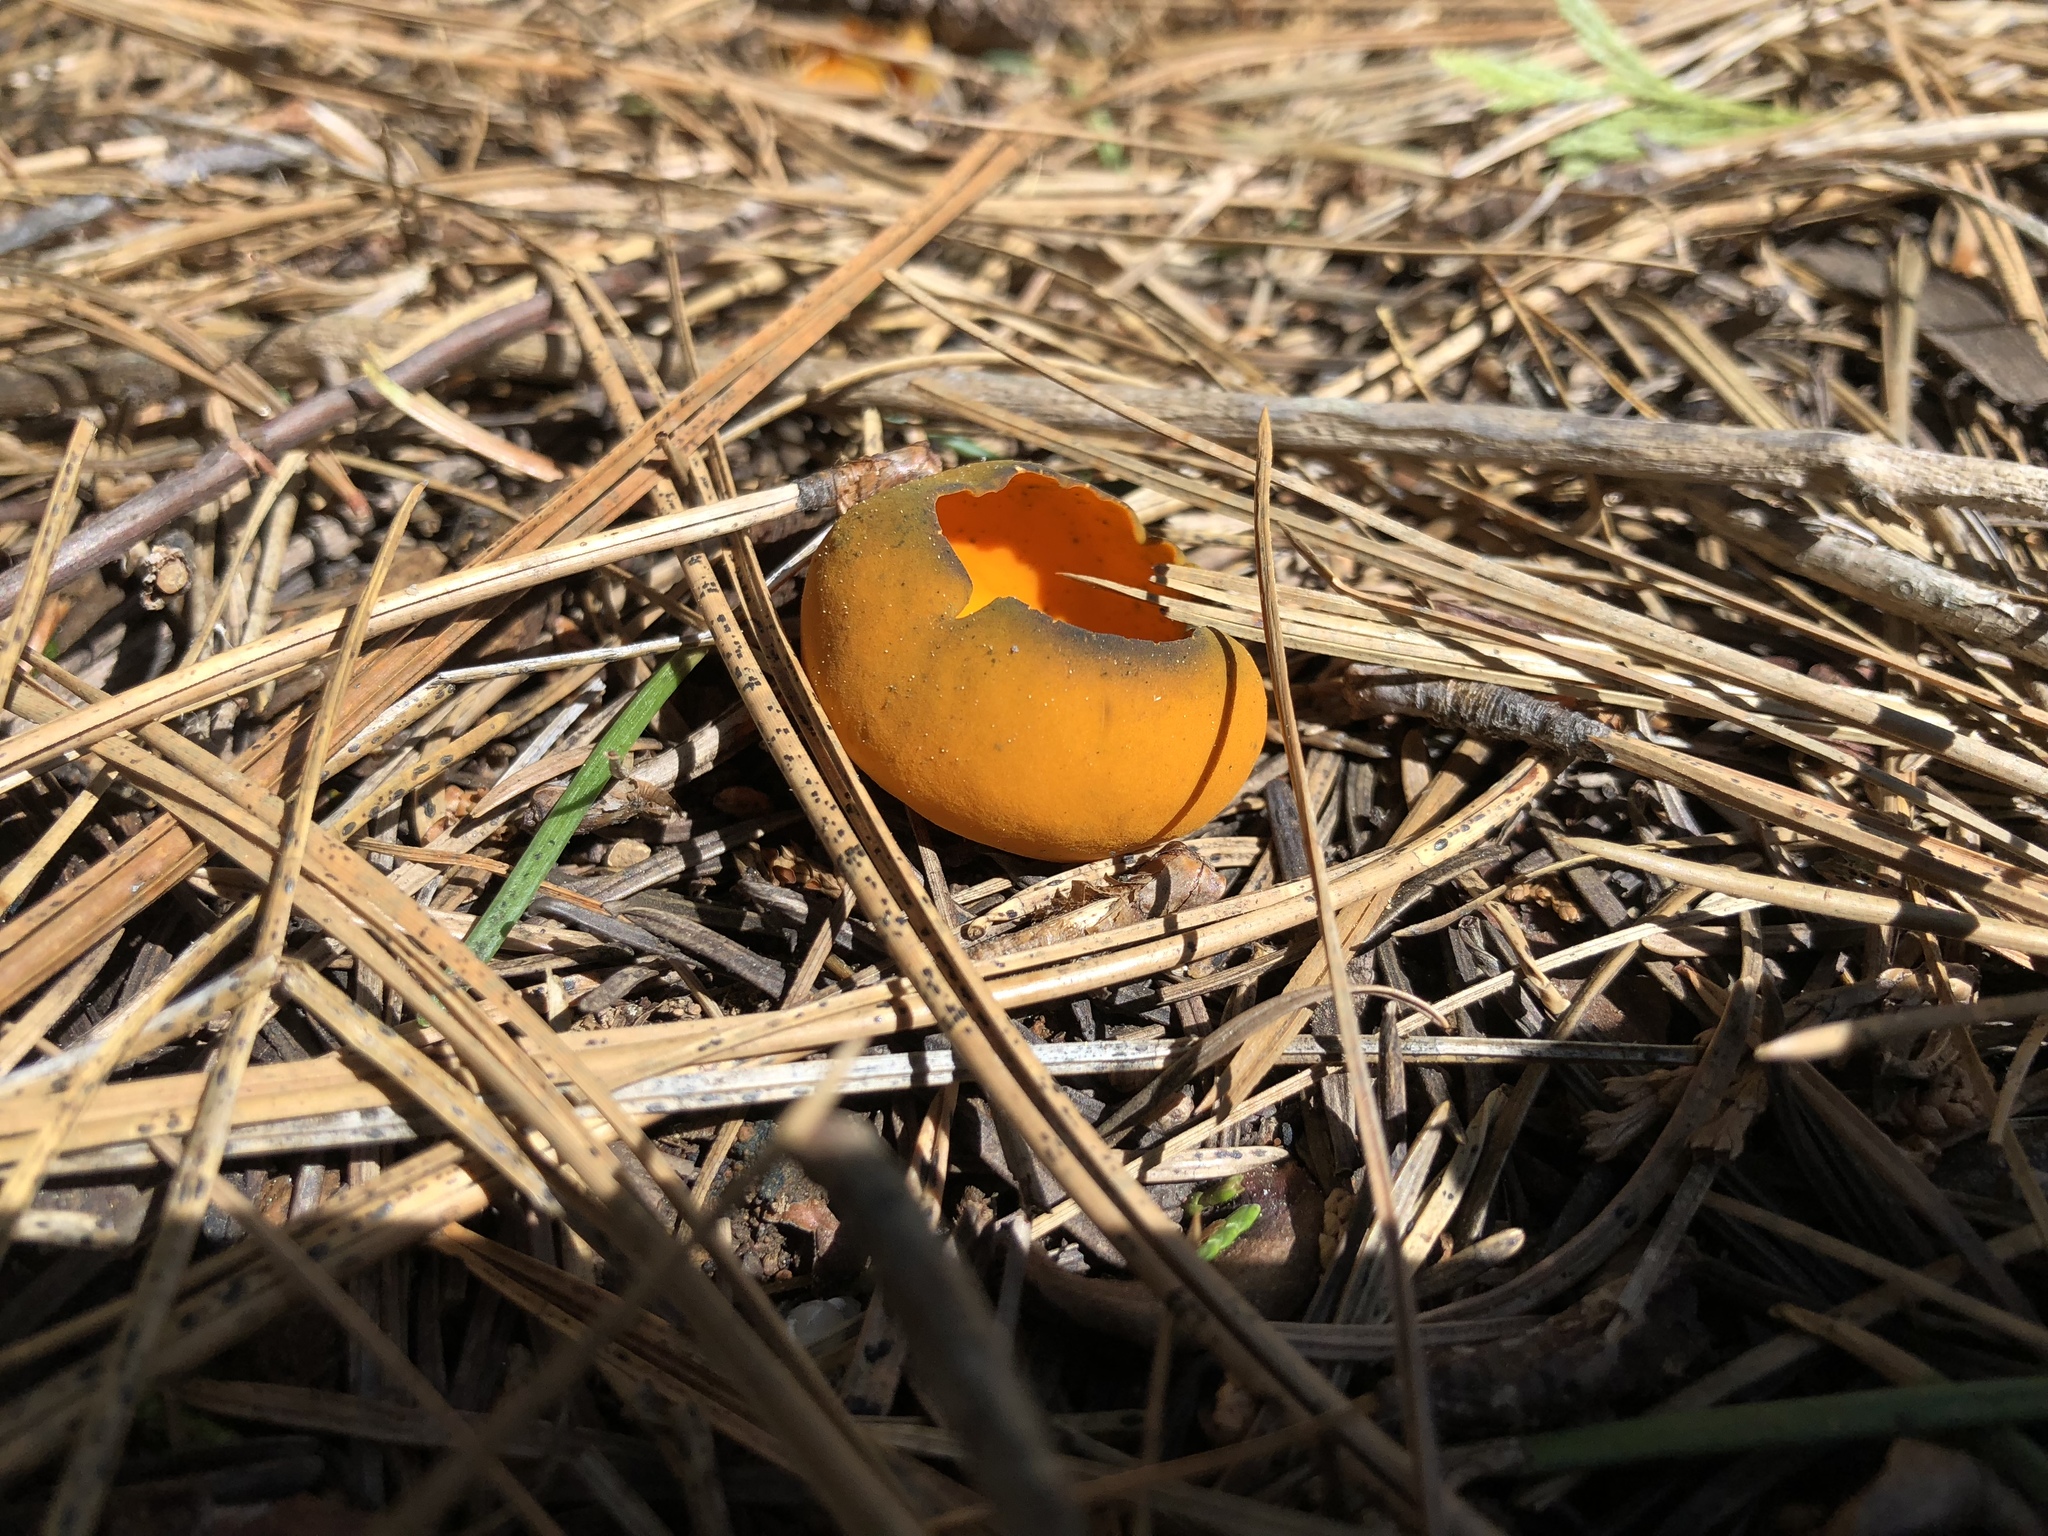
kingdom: Fungi
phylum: Ascomycota
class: Pezizomycetes
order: Pezizales
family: Caloscyphaceae
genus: Caloscypha
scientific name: Caloscypha fulgens
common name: Golden cup
